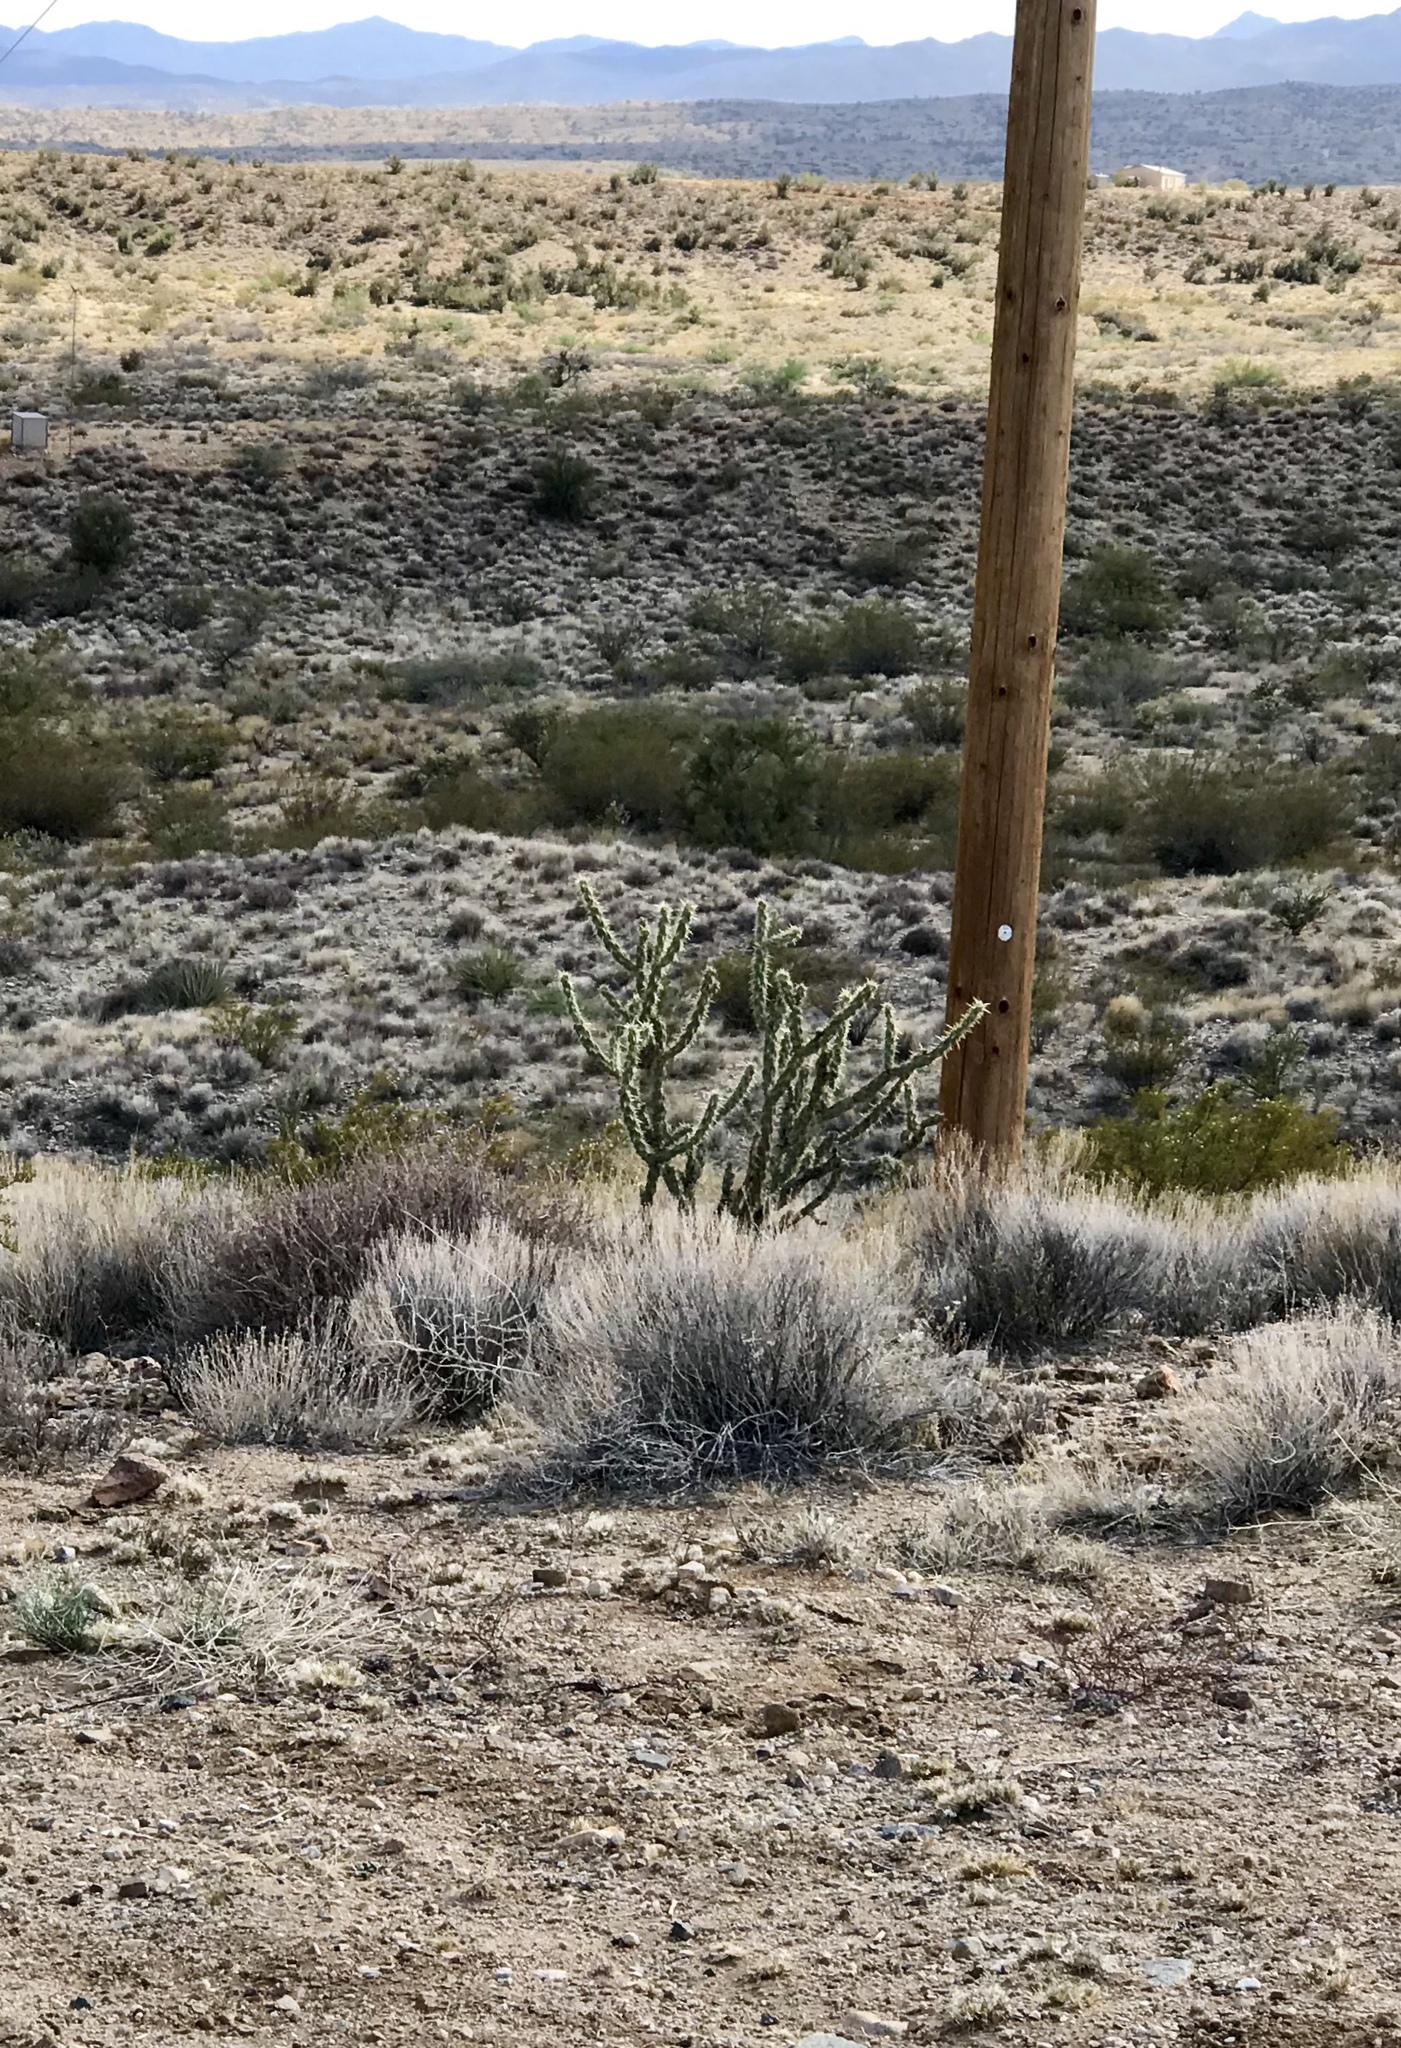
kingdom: Plantae
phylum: Tracheophyta
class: Magnoliopsida
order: Caryophyllales
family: Cactaceae
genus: Cylindropuntia
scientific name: Cylindropuntia acanthocarpa
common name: Buckhorn cholla
